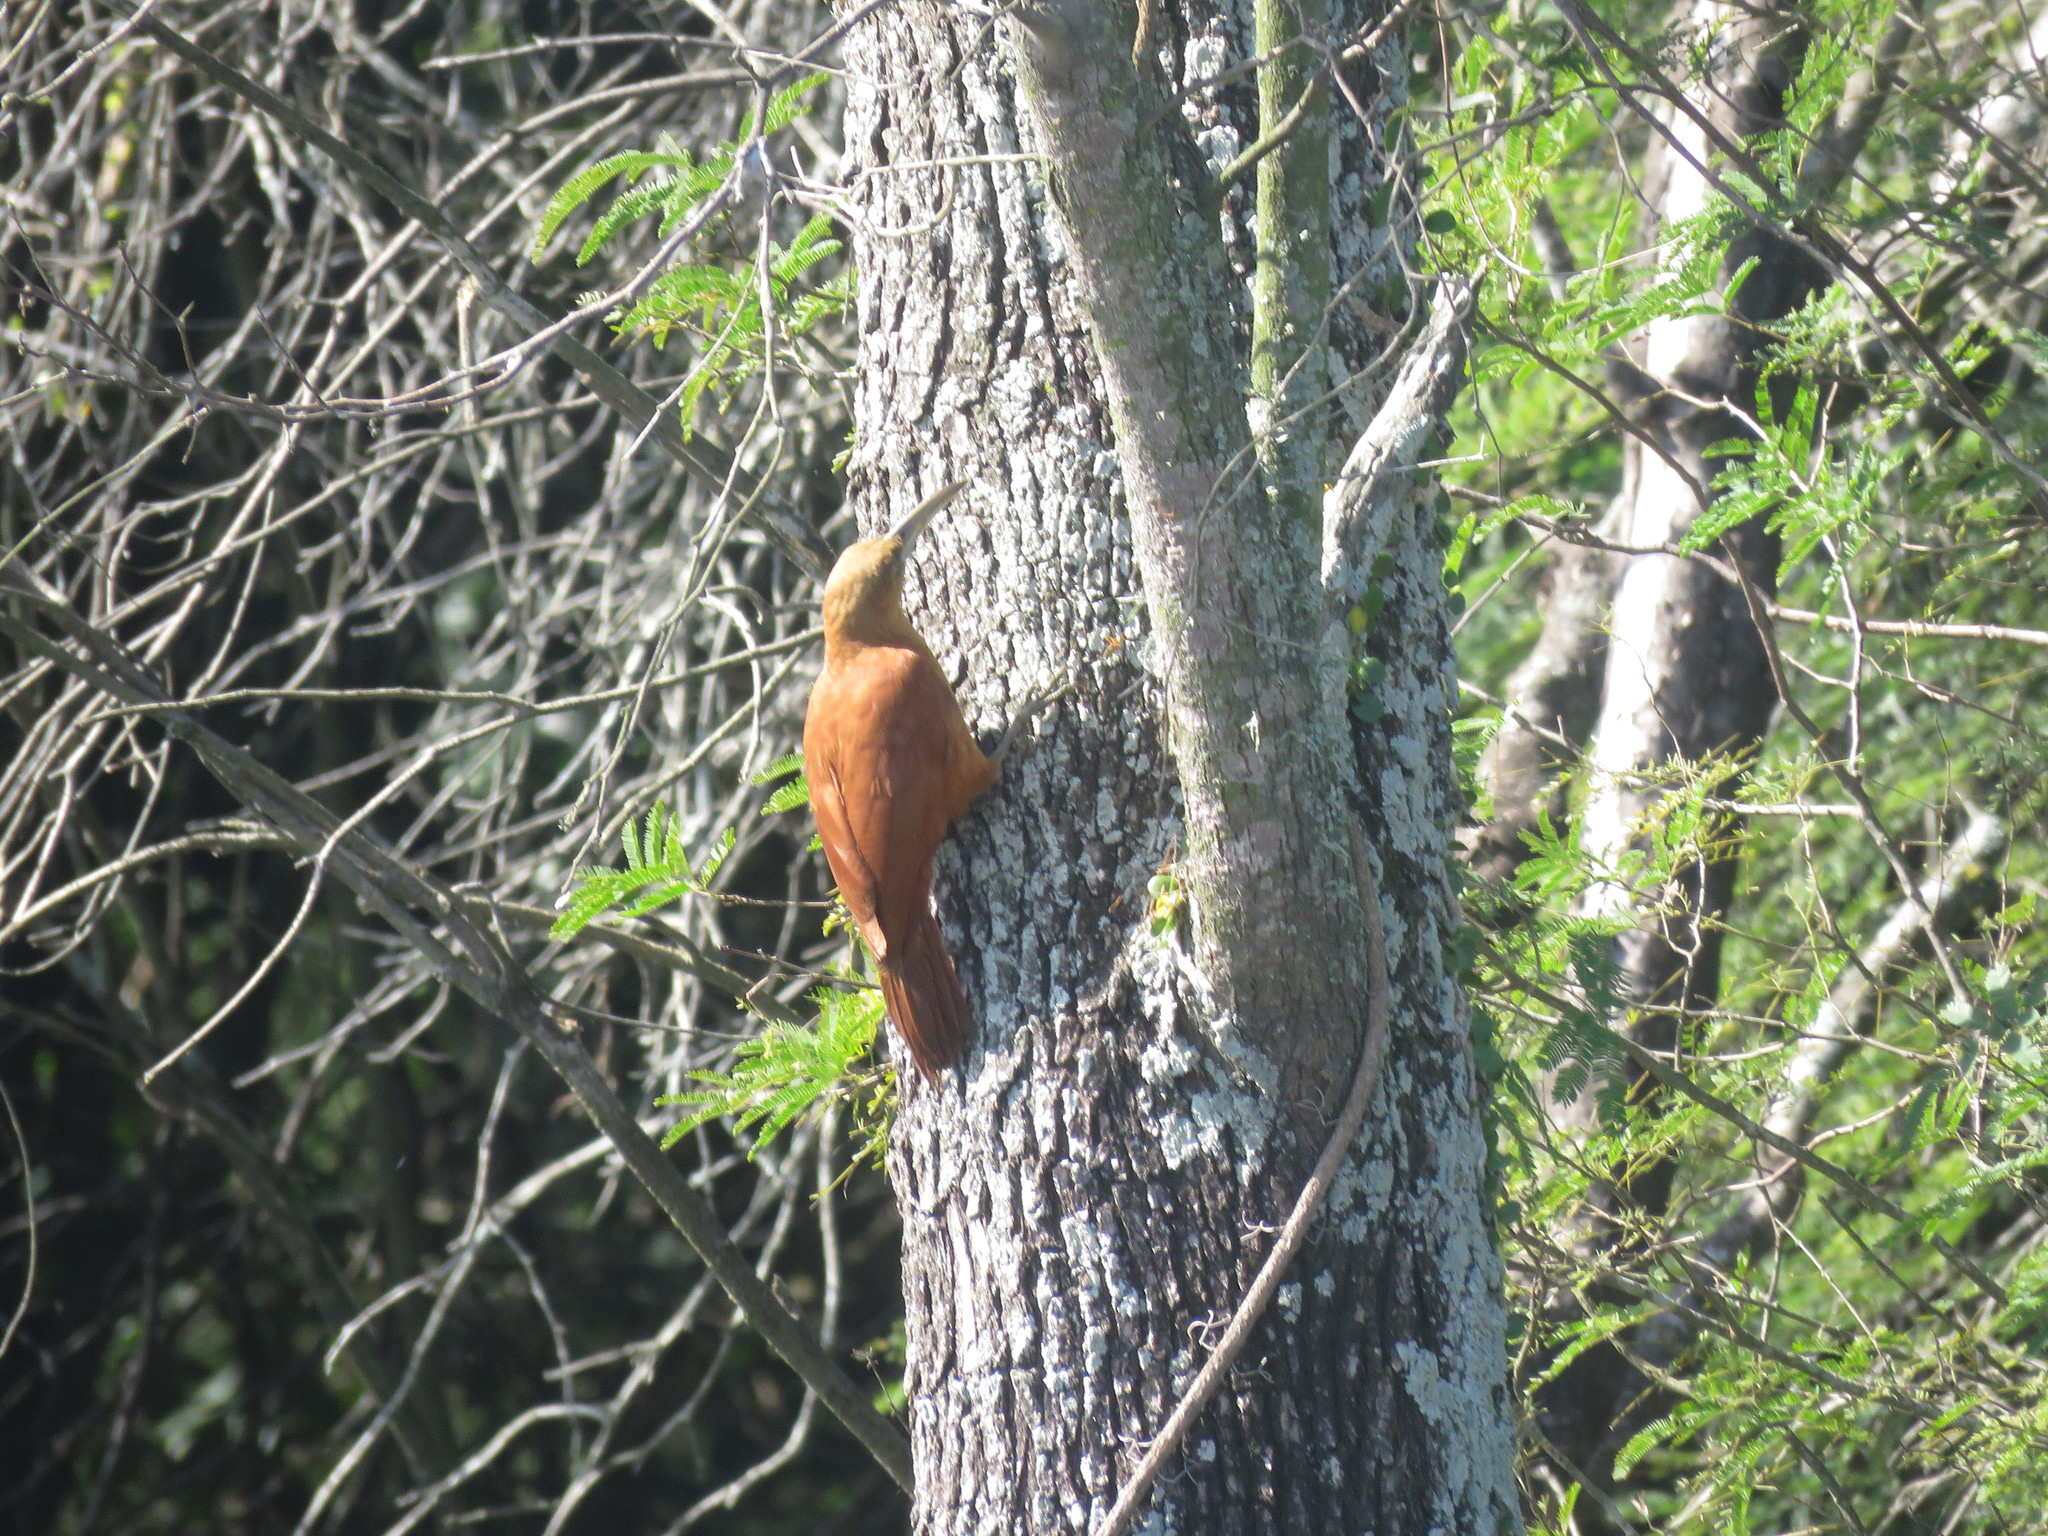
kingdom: Animalia
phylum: Chordata
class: Aves
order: Passeriformes
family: Furnariidae
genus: Xiphocolaptes
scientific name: Xiphocolaptes major
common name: Great rufous woodcreeper
